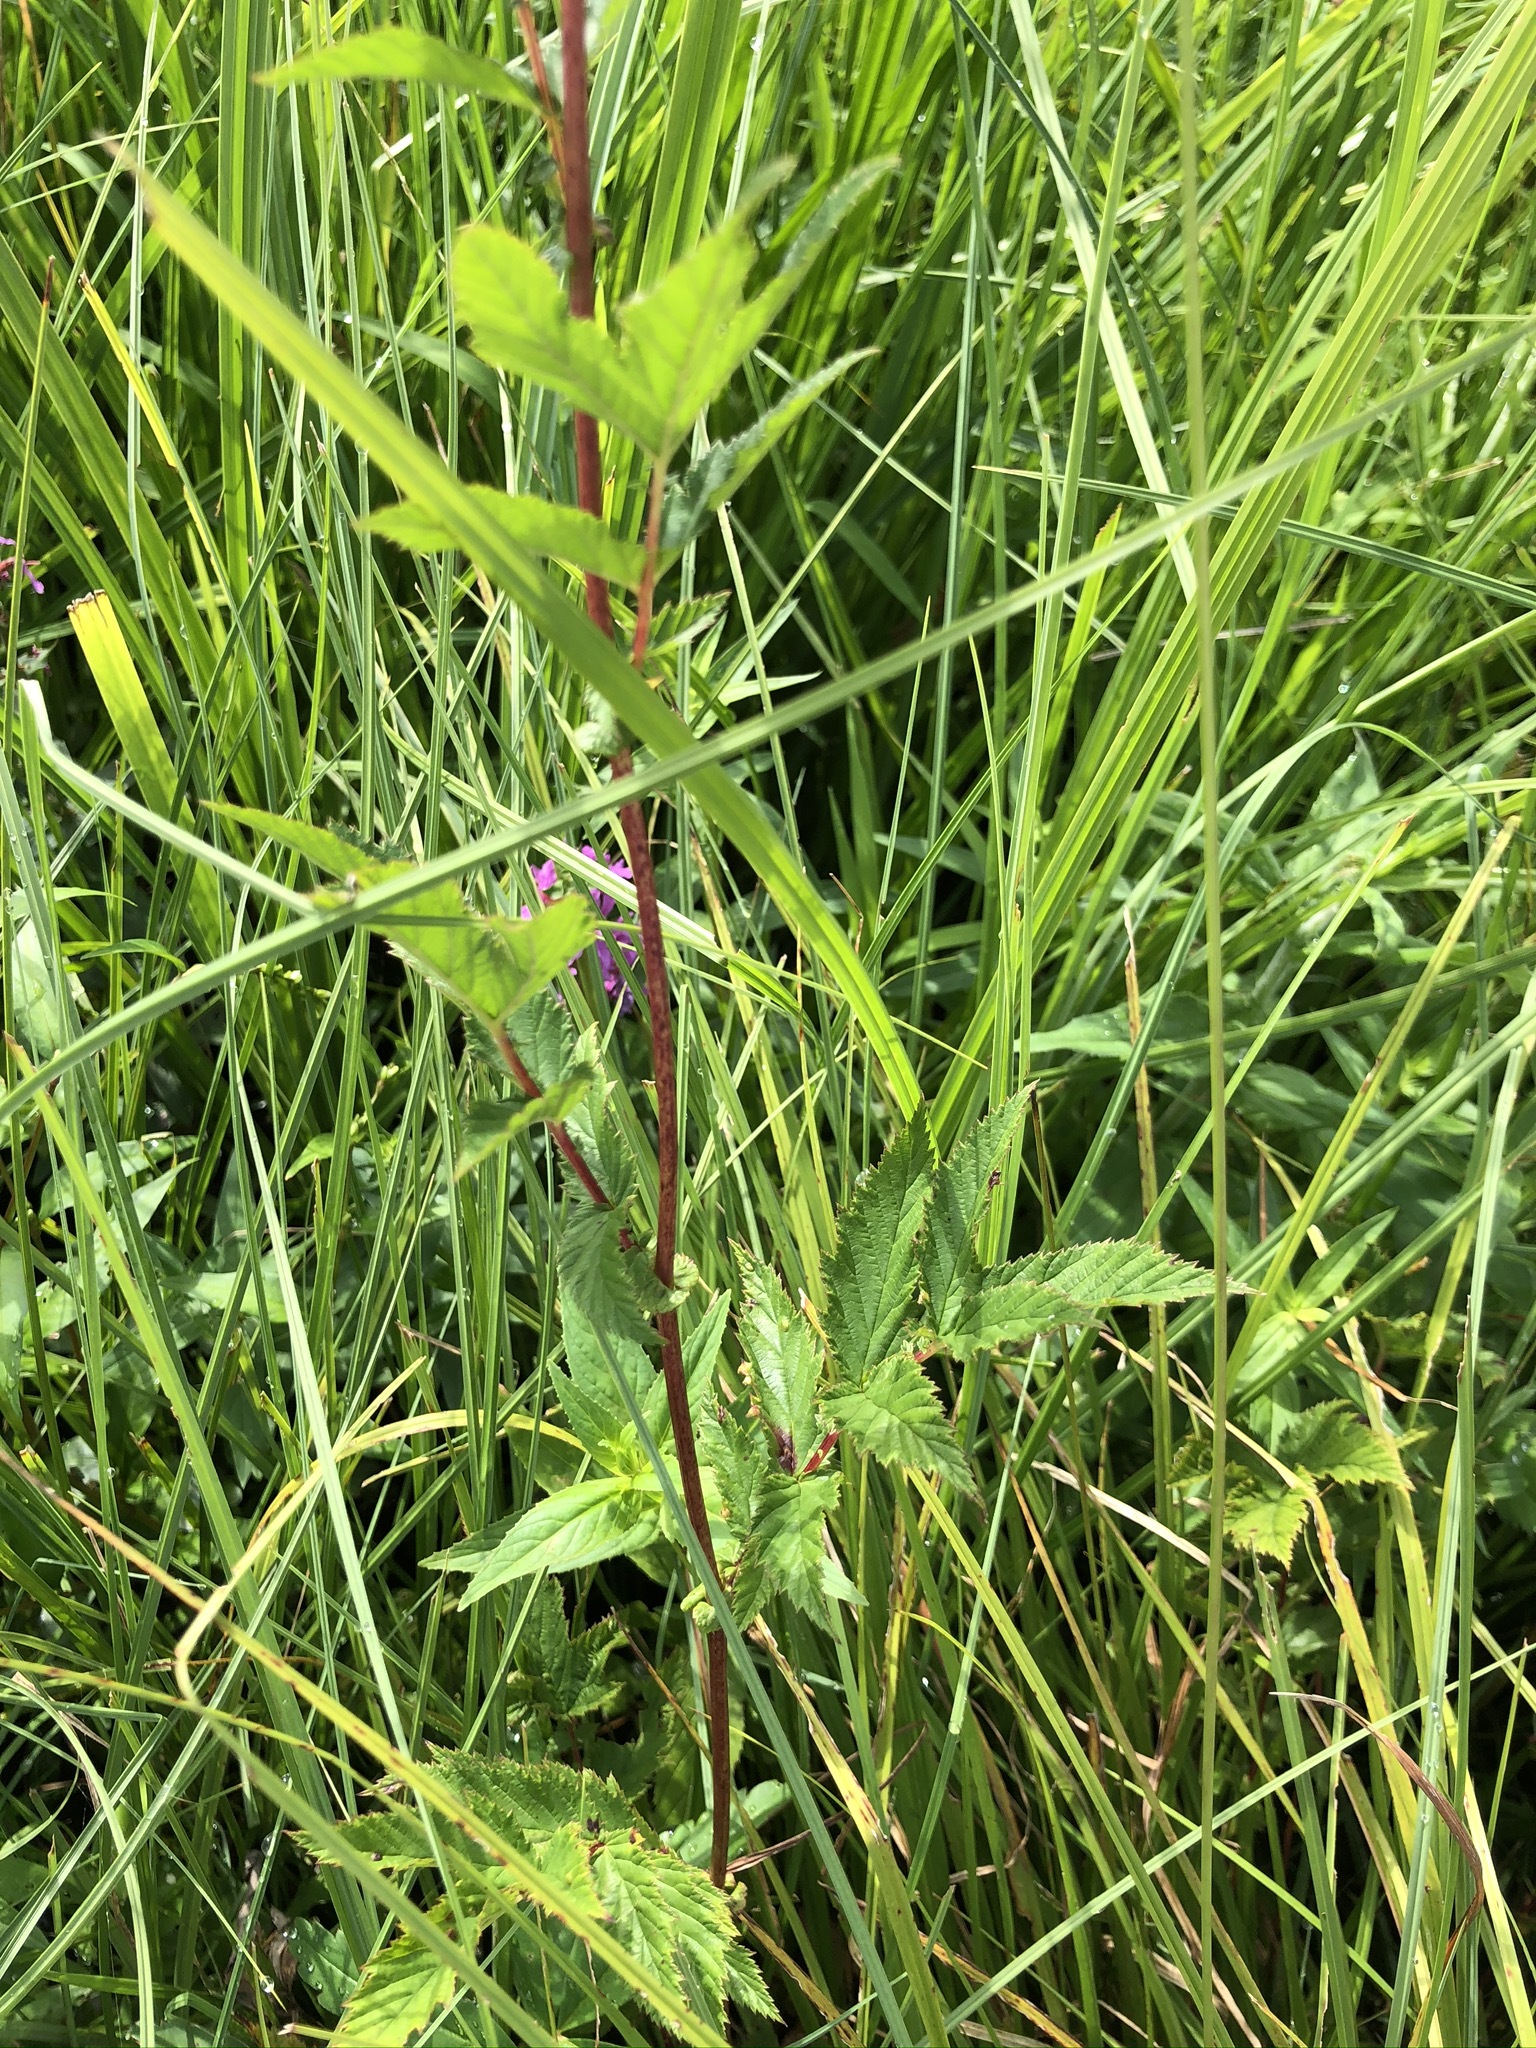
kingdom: Plantae
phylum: Tracheophyta
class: Magnoliopsida
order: Rosales
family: Rosaceae
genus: Filipendula
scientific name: Filipendula ulmaria
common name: Meadowsweet
